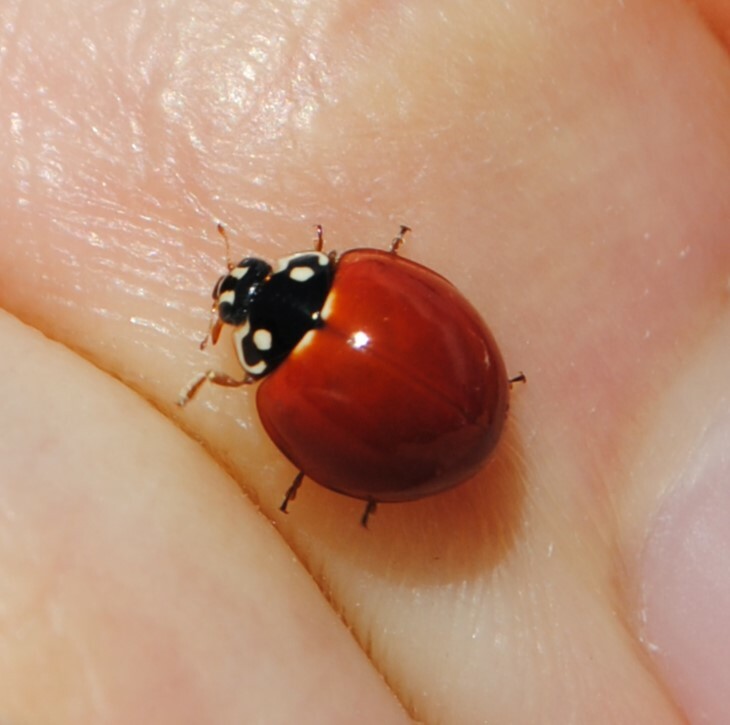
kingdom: Animalia
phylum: Arthropoda
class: Insecta
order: Coleoptera
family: Coccinellidae
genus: Cycloneda
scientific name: Cycloneda sanguinea
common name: Ladybird beetle
